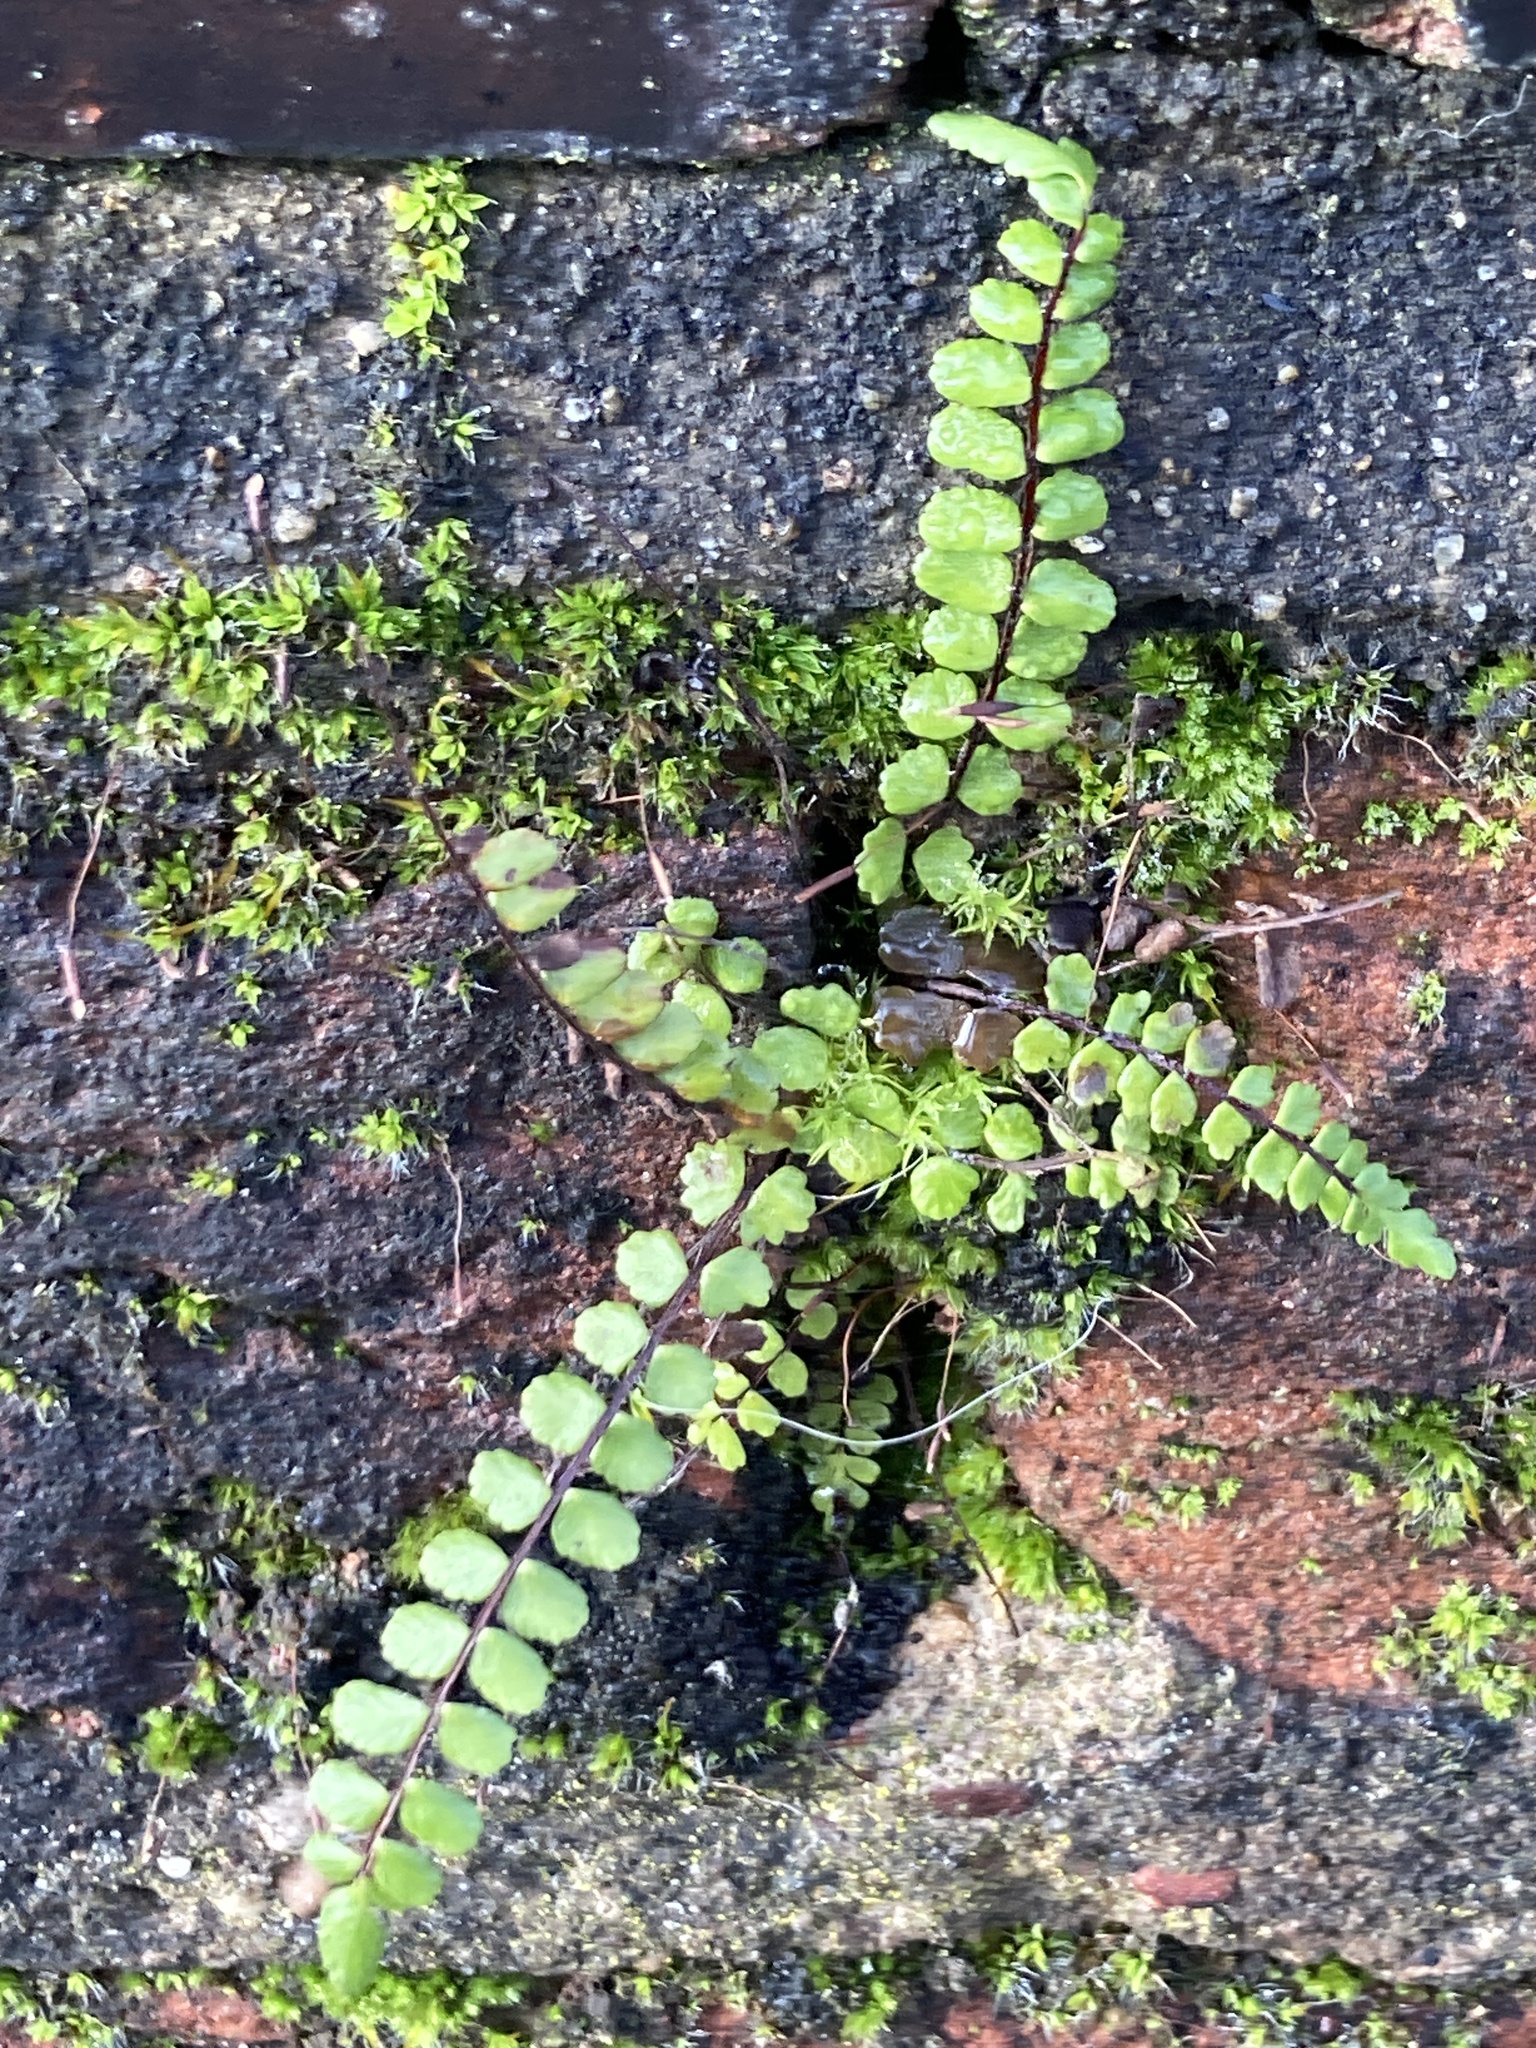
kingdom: Plantae
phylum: Tracheophyta
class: Polypodiopsida
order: Polypodiales
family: Aspleniaceae
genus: Asplenium
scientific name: Asplenium trichomanes
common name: Maidenhair spleenwort
